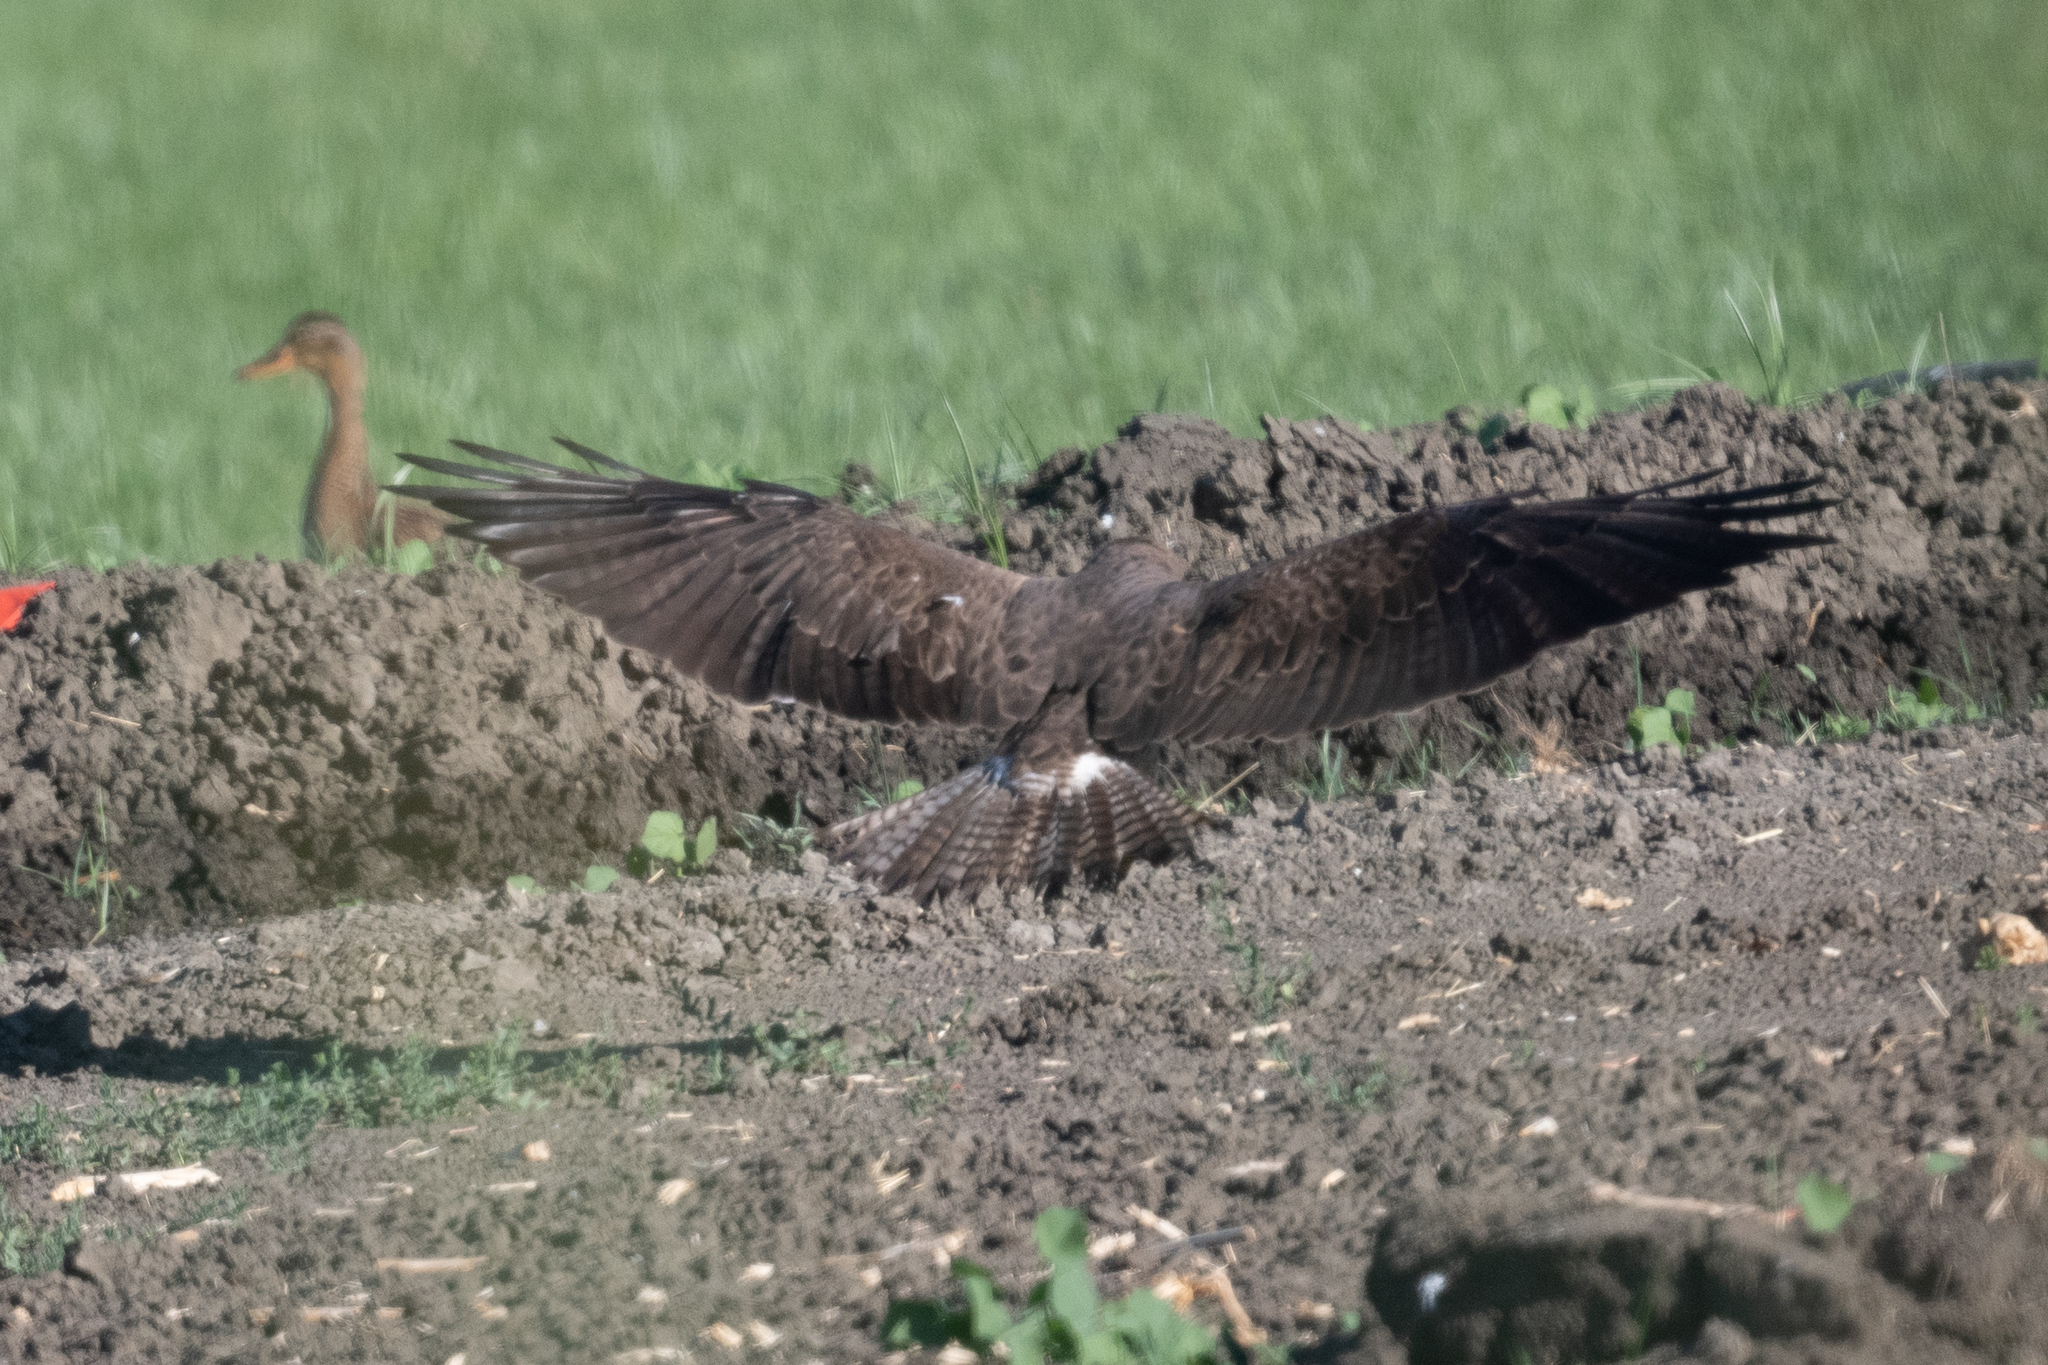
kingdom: Animalia
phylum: Chordata
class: Aves
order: Accipitriformes
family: Accipitridae
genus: Buteo
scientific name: Buteo swainsoni
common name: Swainson's hawk
